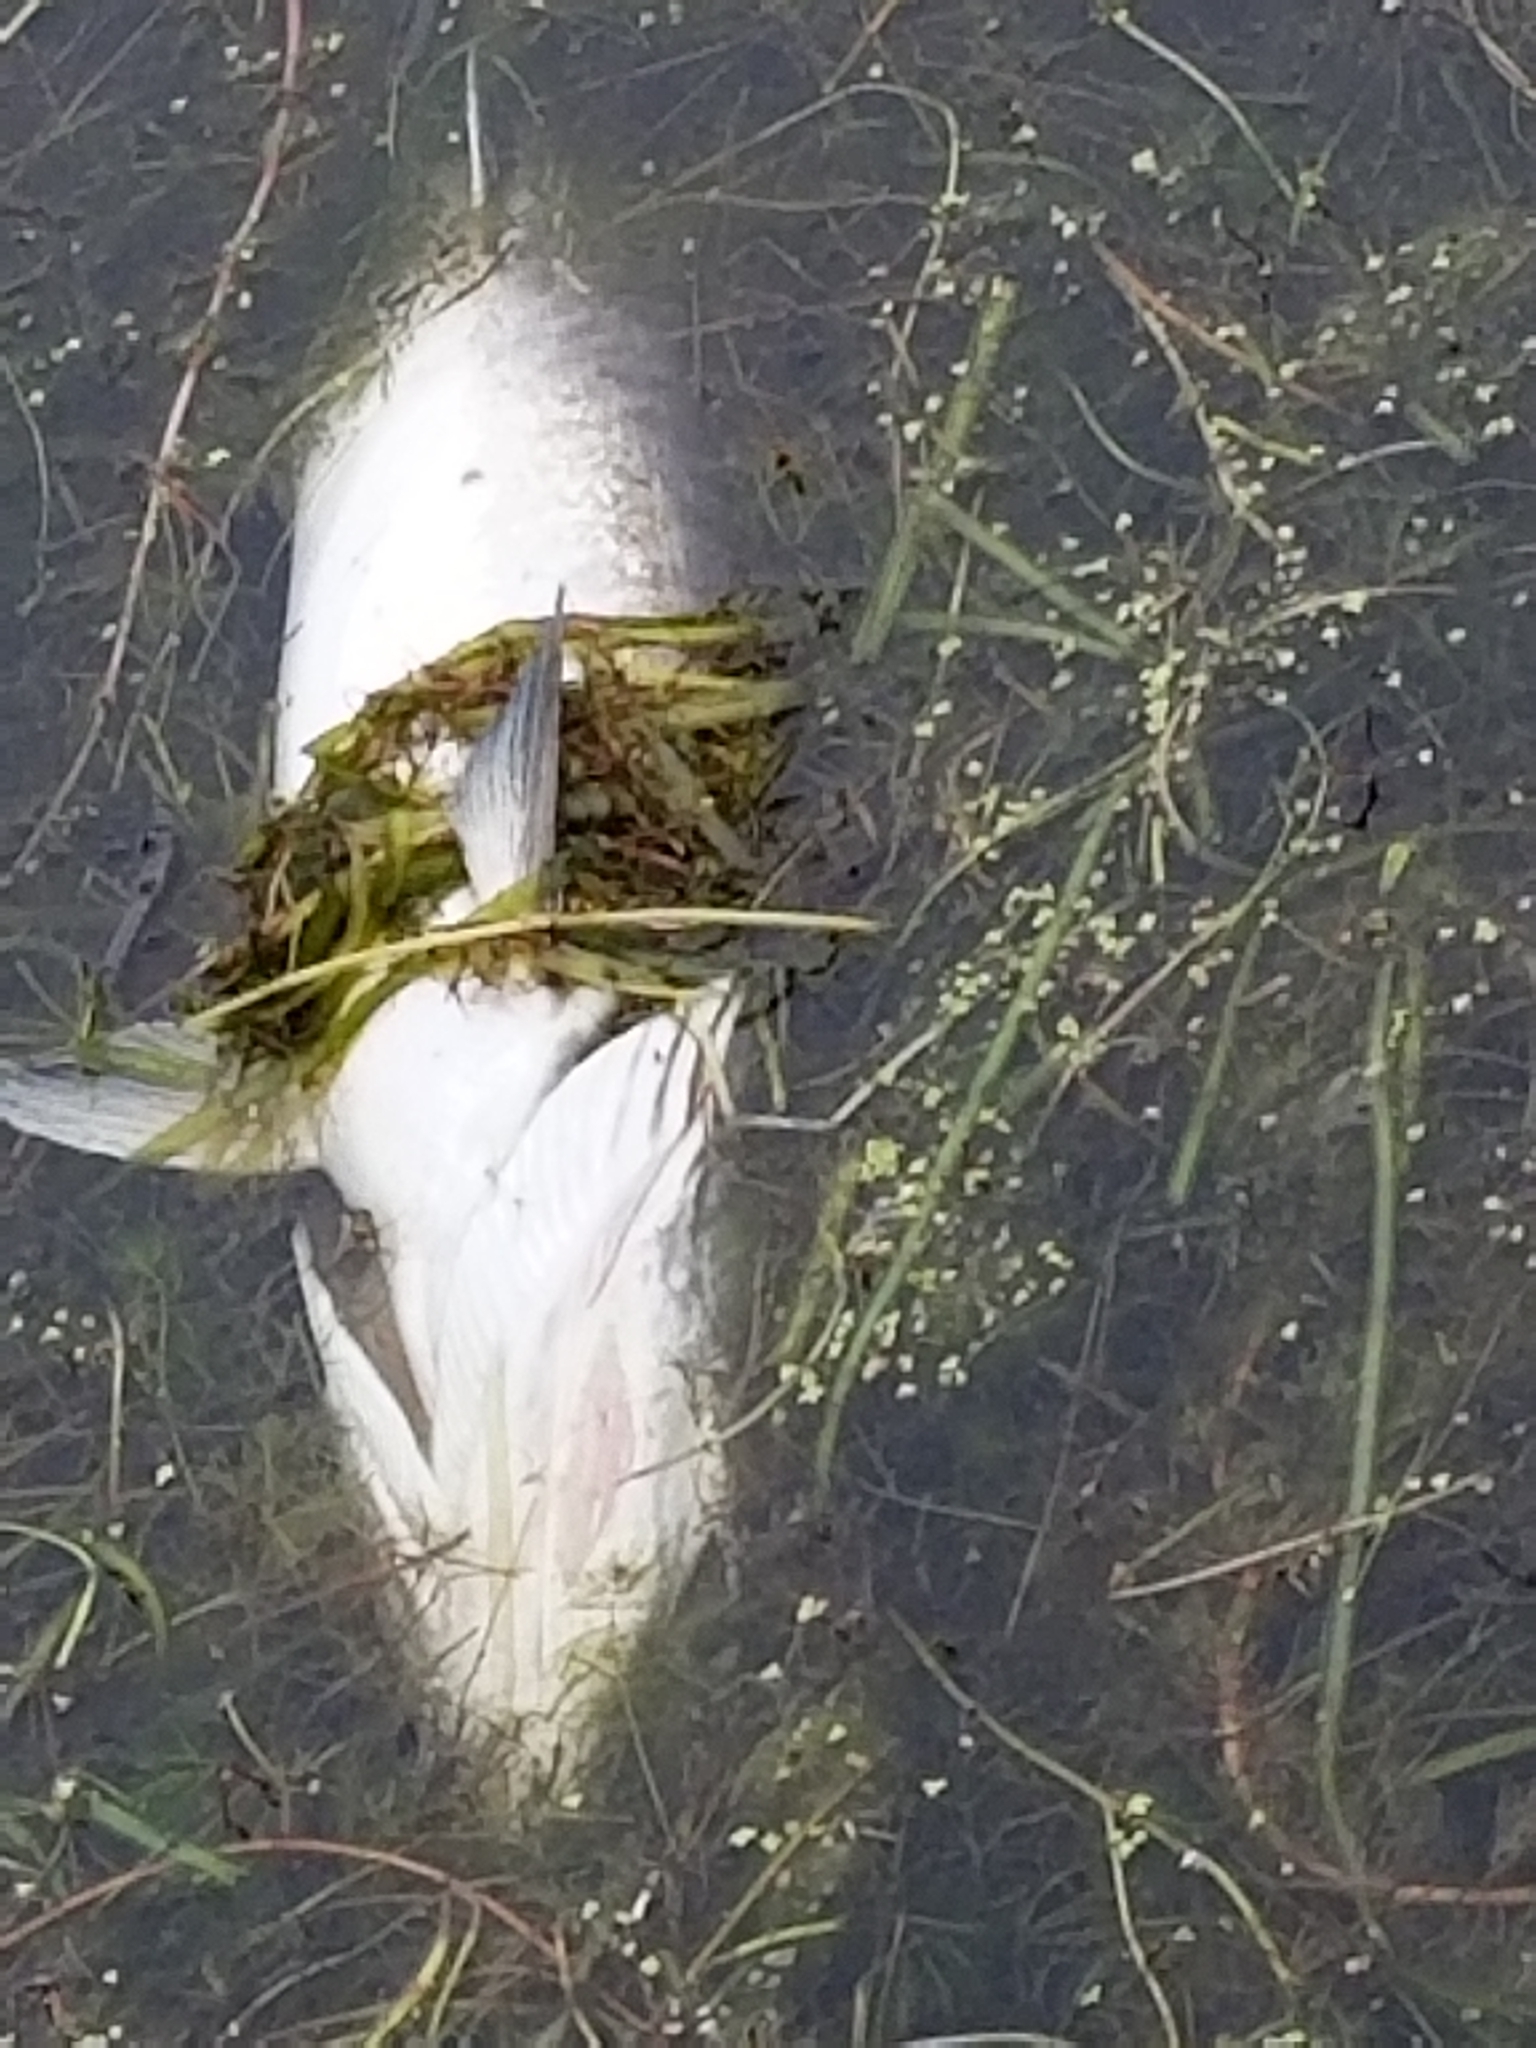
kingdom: Animalia
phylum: Chordata
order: Esociformes
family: Esocidae
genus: Esox
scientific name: Esox masquinongy
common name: Muskellunge
